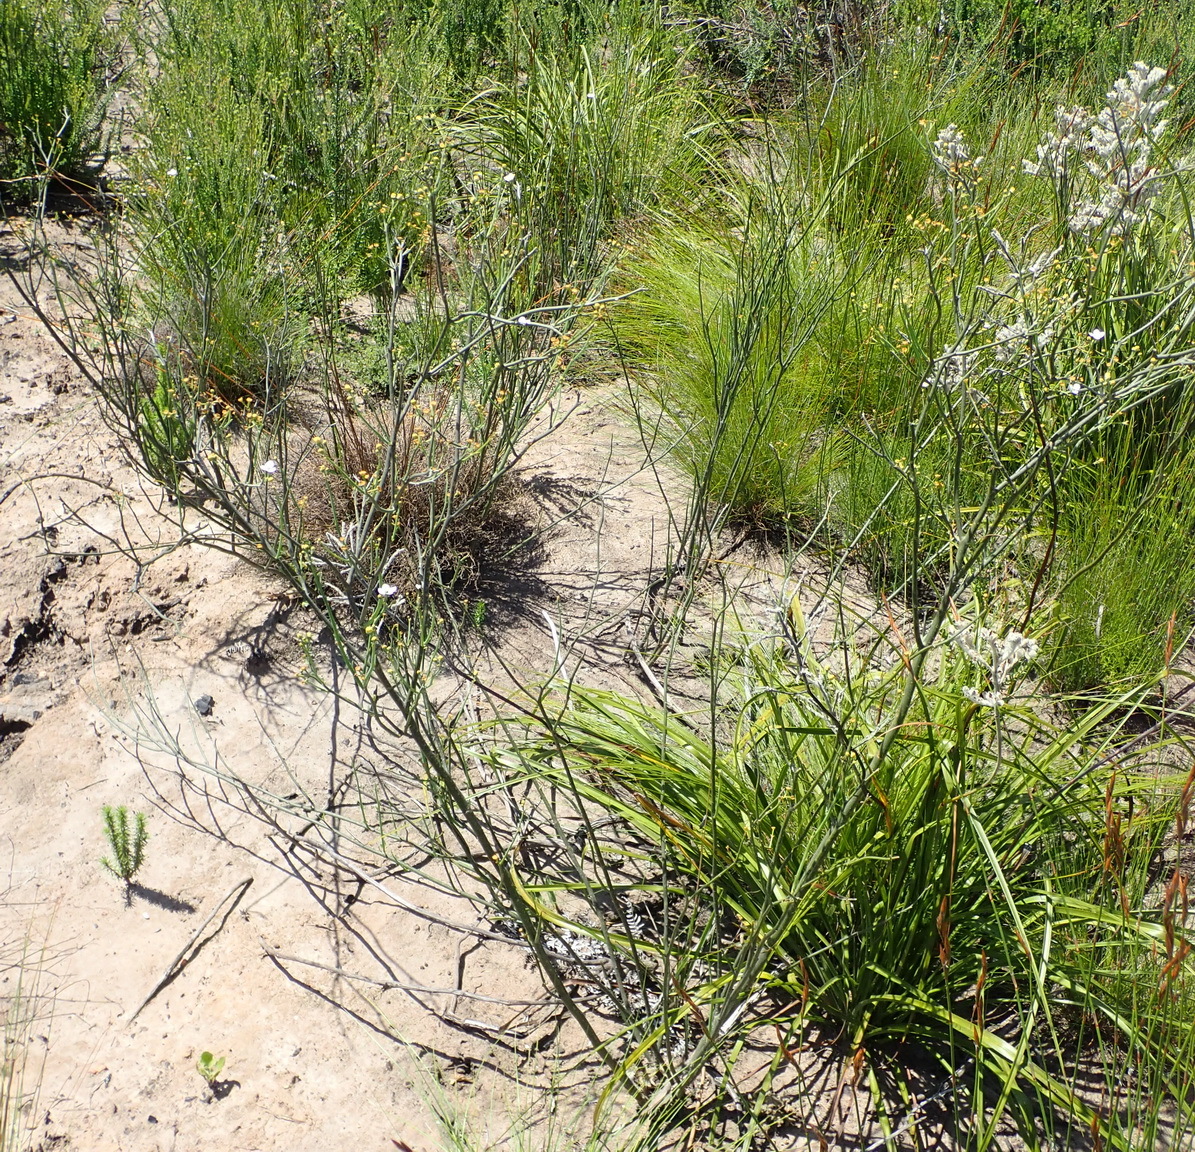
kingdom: Plantae
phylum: Tracheophyta
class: Magnoliopsida
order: Solanales
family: Montiniaceae
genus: Montinia
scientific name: Montinia caryophyllacea
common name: Wild clove-bush
